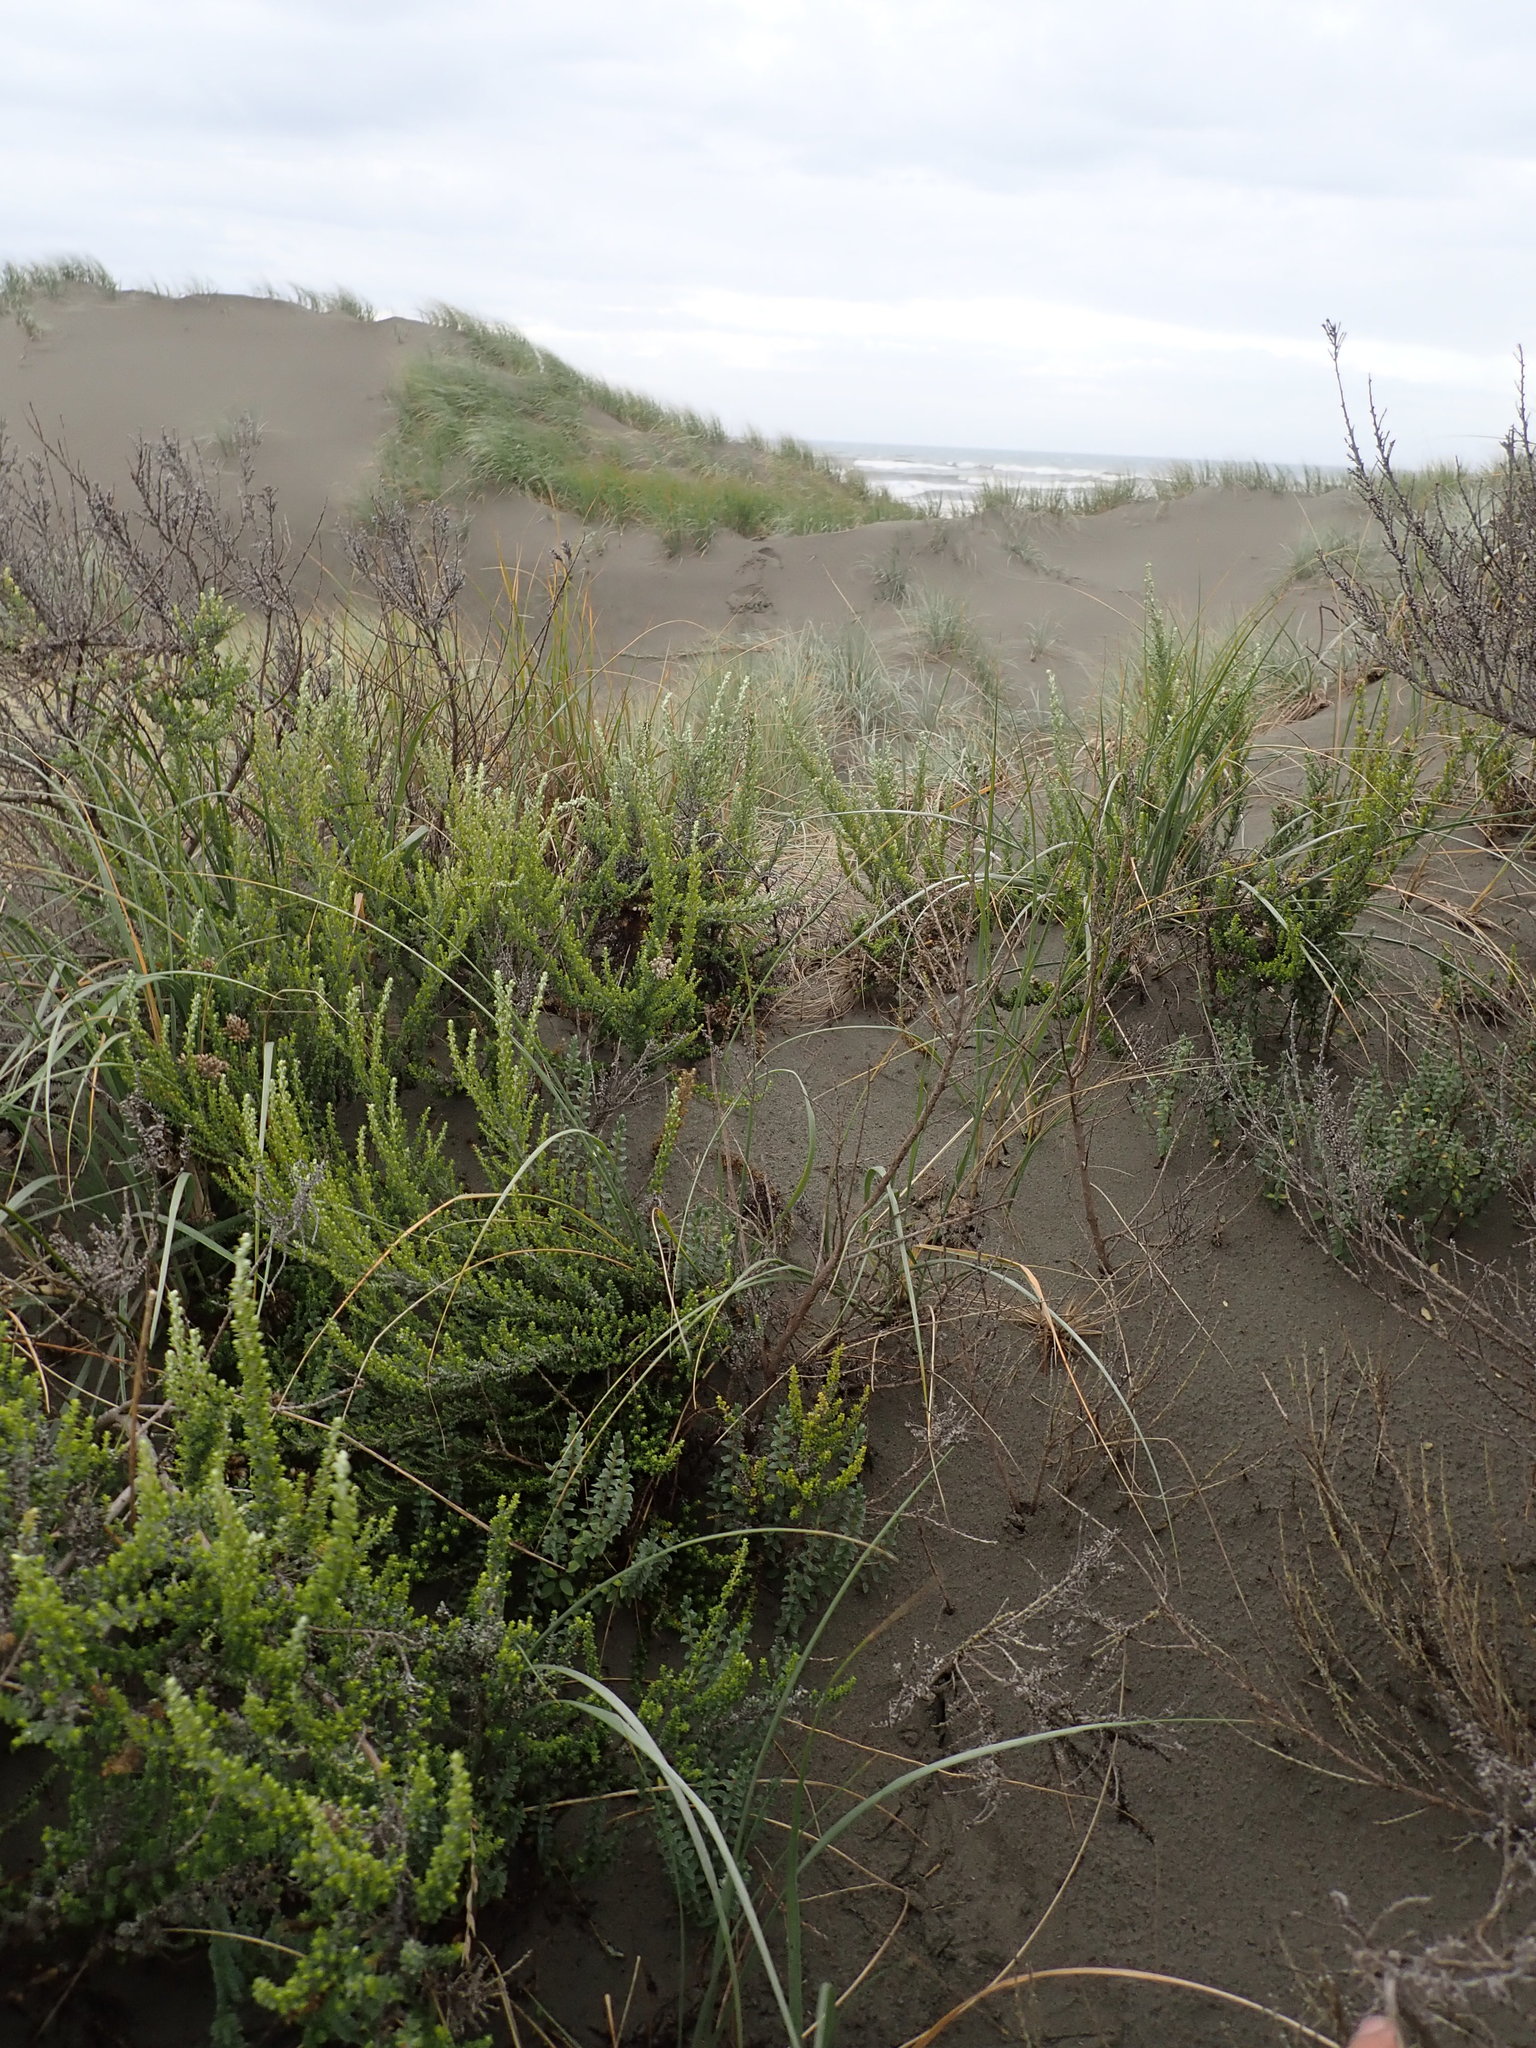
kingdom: Plantae
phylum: Tracheophyta
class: Magnoliopsida
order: Malvales
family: Thymelaeaceae
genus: Pimelea
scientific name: Pimelea villosa
